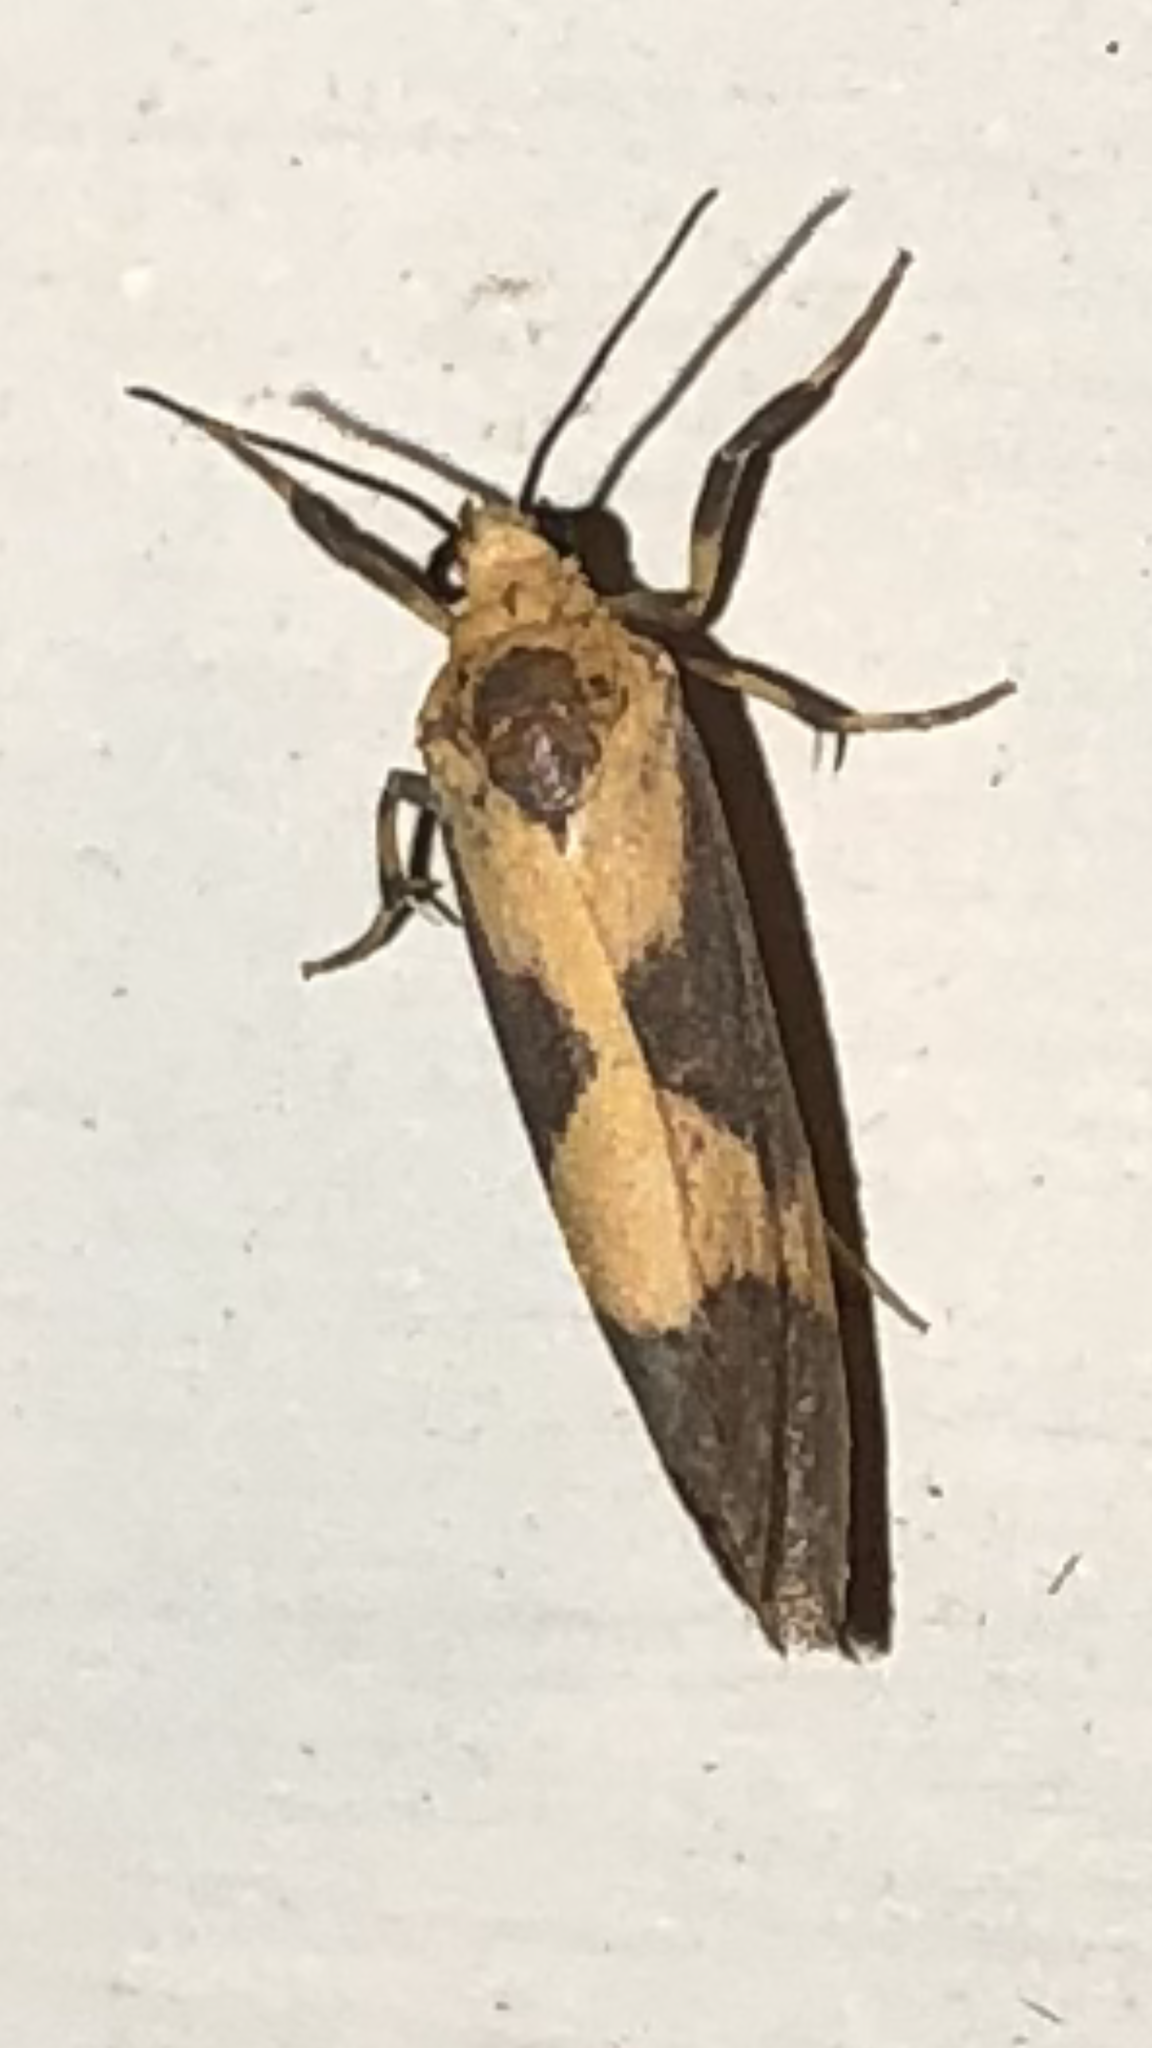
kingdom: Animalia
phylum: Arthropoda
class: Insecta
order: Lepidoptera
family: Erebidae
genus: Cisthene
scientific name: Cisthene unifascia
